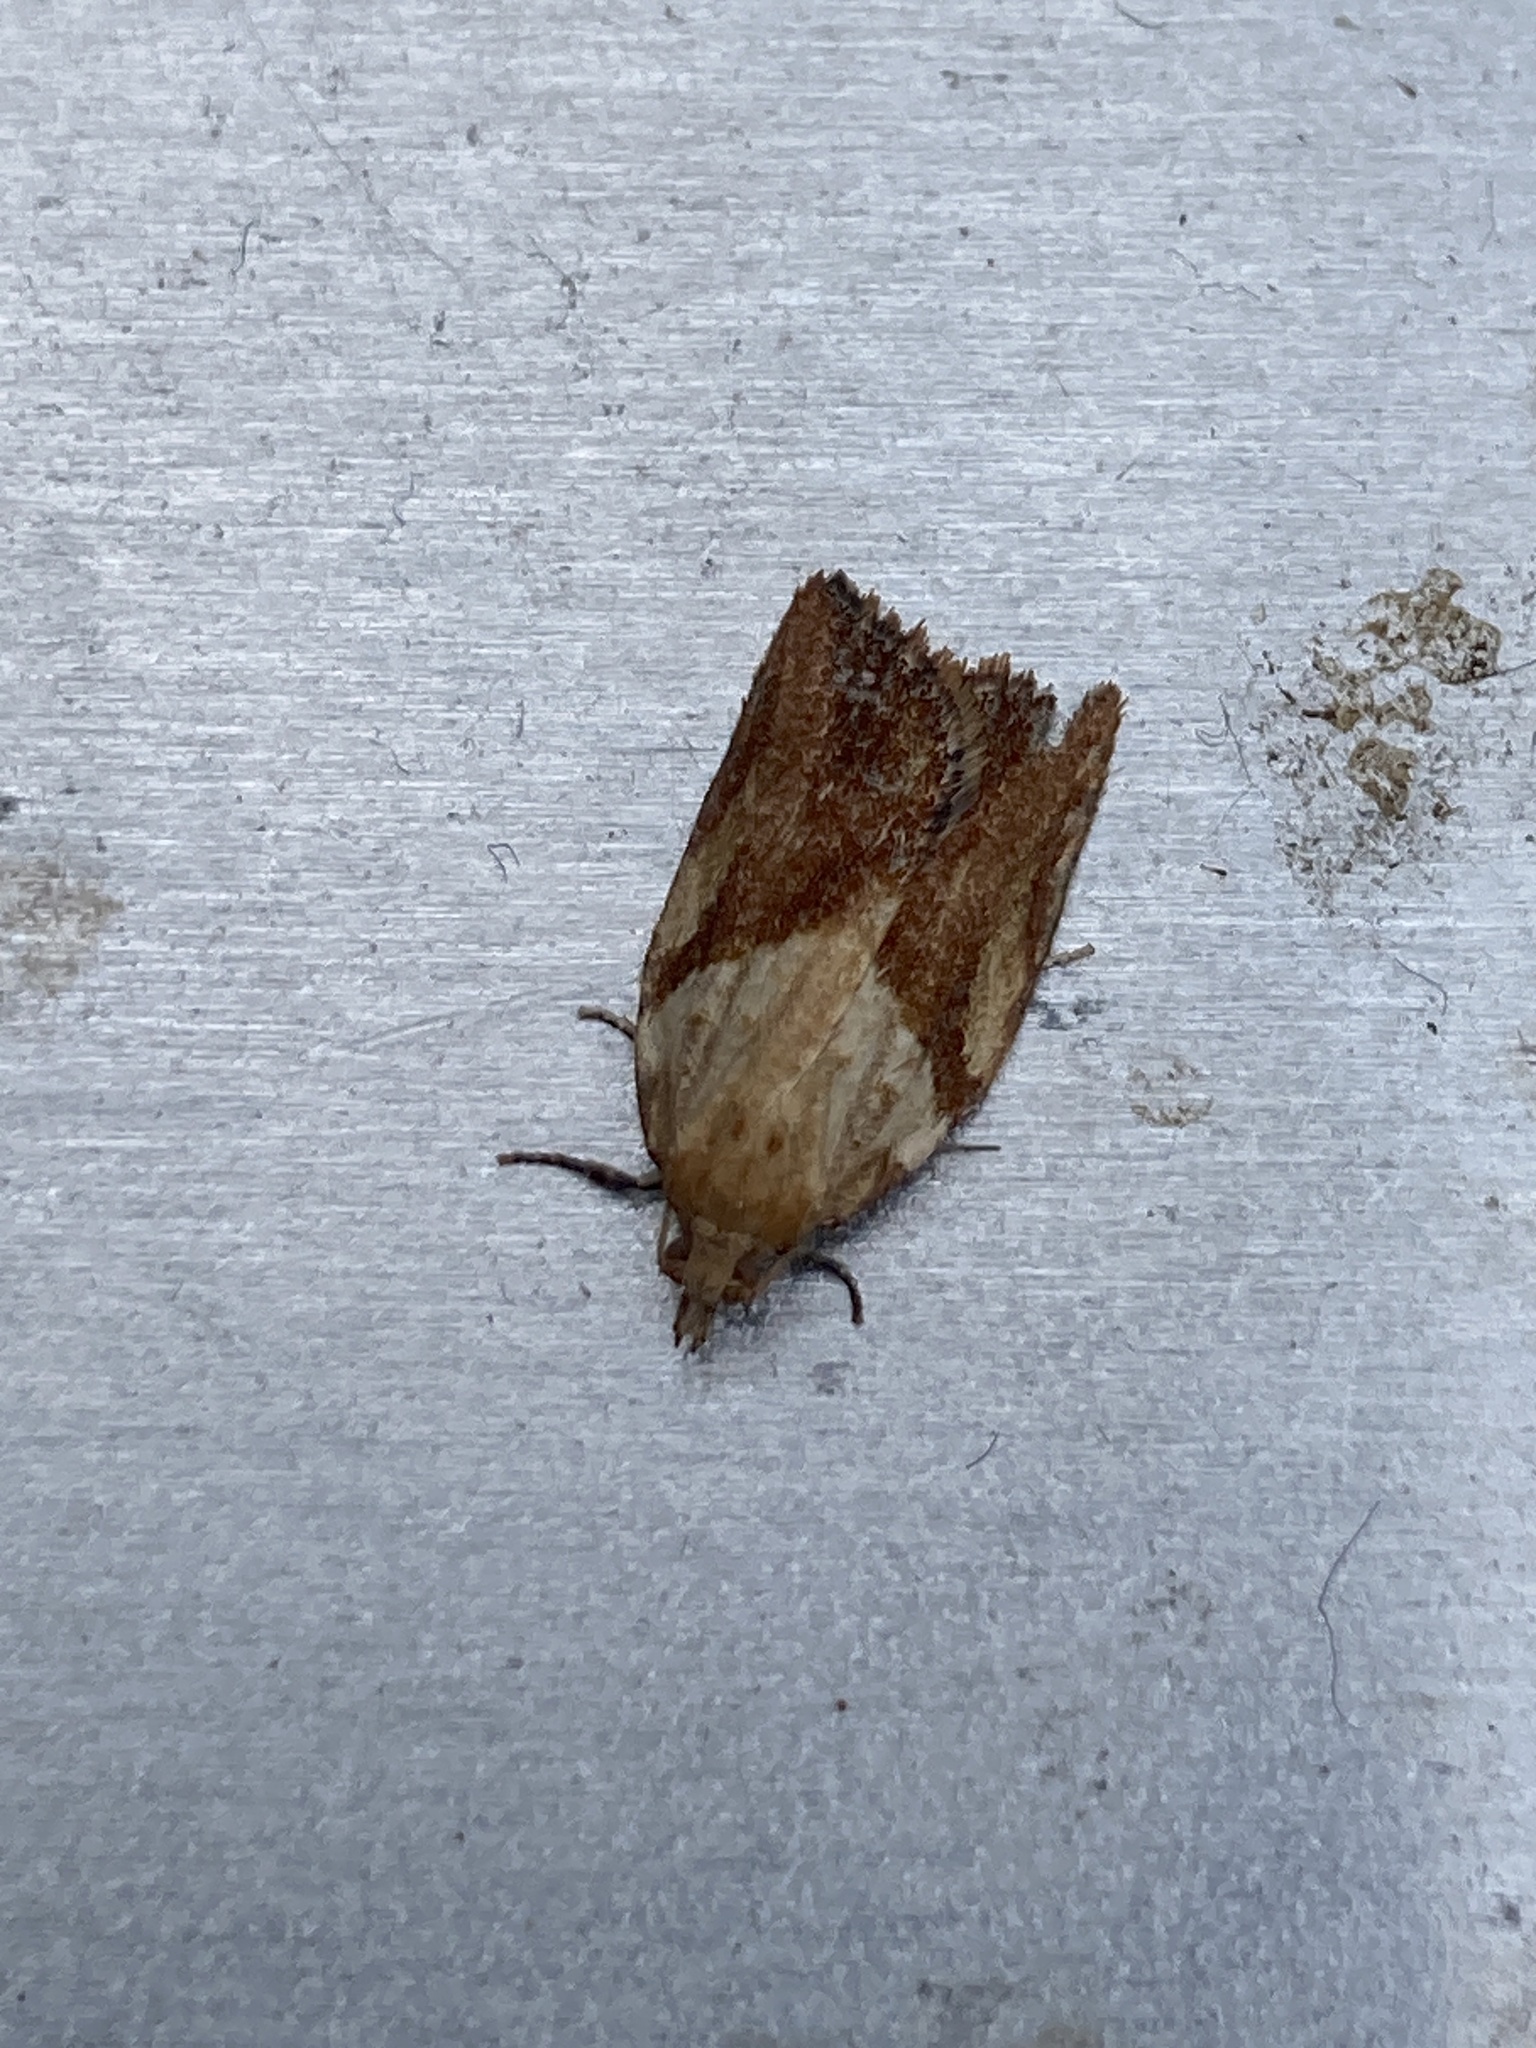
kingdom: Animalia
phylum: Arthropoda
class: Insecta
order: Lepidoptera
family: Tortricidae
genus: Epiphyas
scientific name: Epiphyas postvittana
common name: Light brown apple moth
